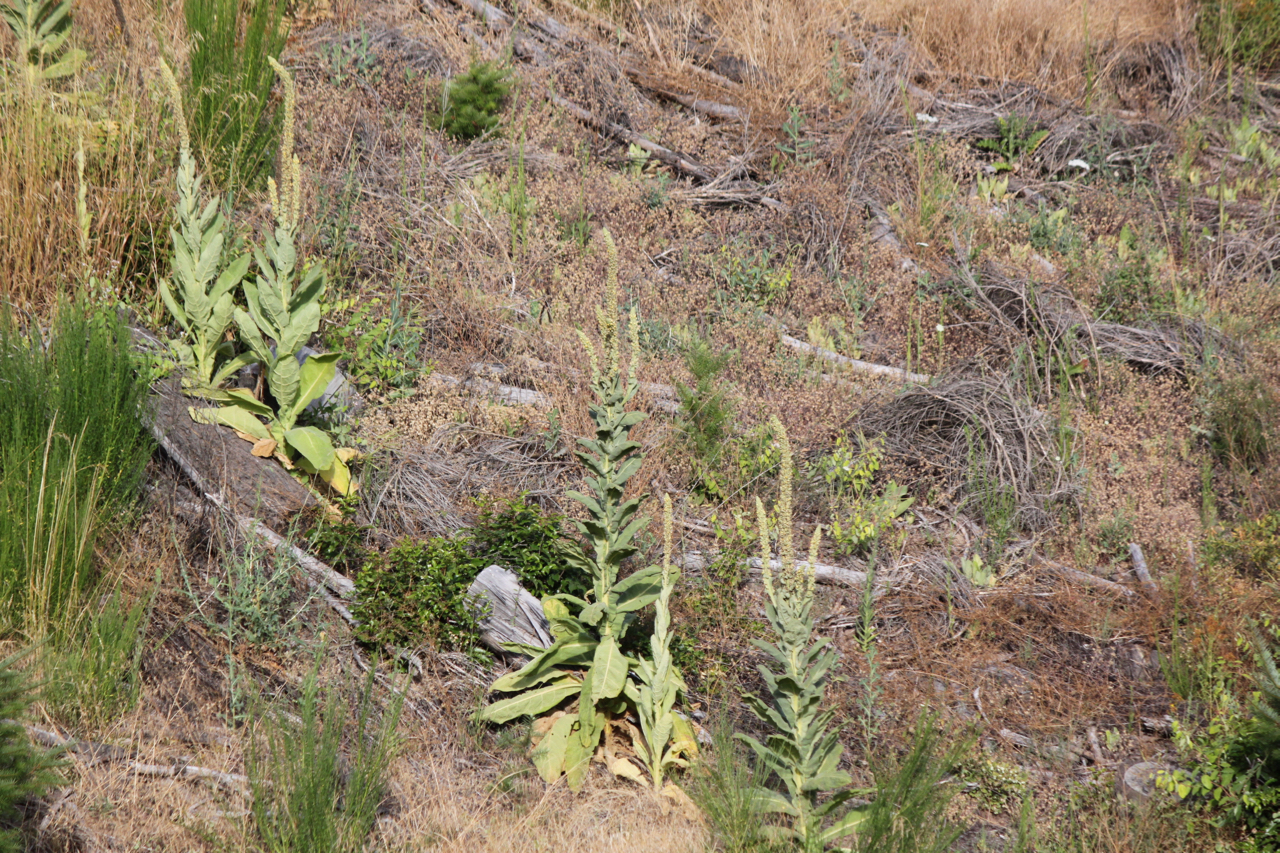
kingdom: Plantae
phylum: Tracheophyta
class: Magnoliopsida
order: Lamiales
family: Scrophulariaceae
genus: Verbascum
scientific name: Verbascum thapsus
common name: Common mullein
